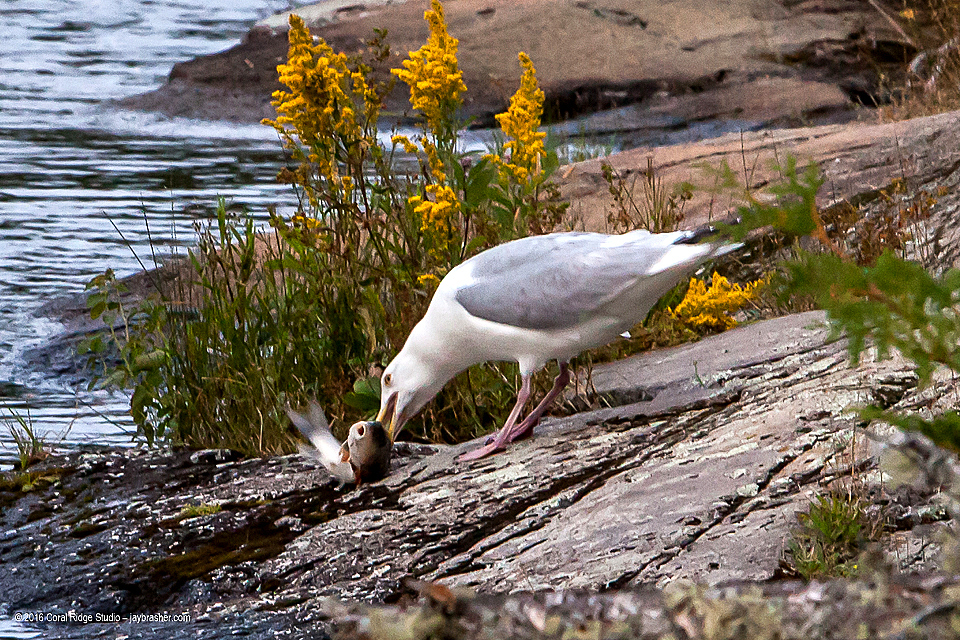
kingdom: Animalia
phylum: Chordata
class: Aves
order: Charadriiformes
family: Laridae
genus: Larus
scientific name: Larus argentatus
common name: Herring gull
